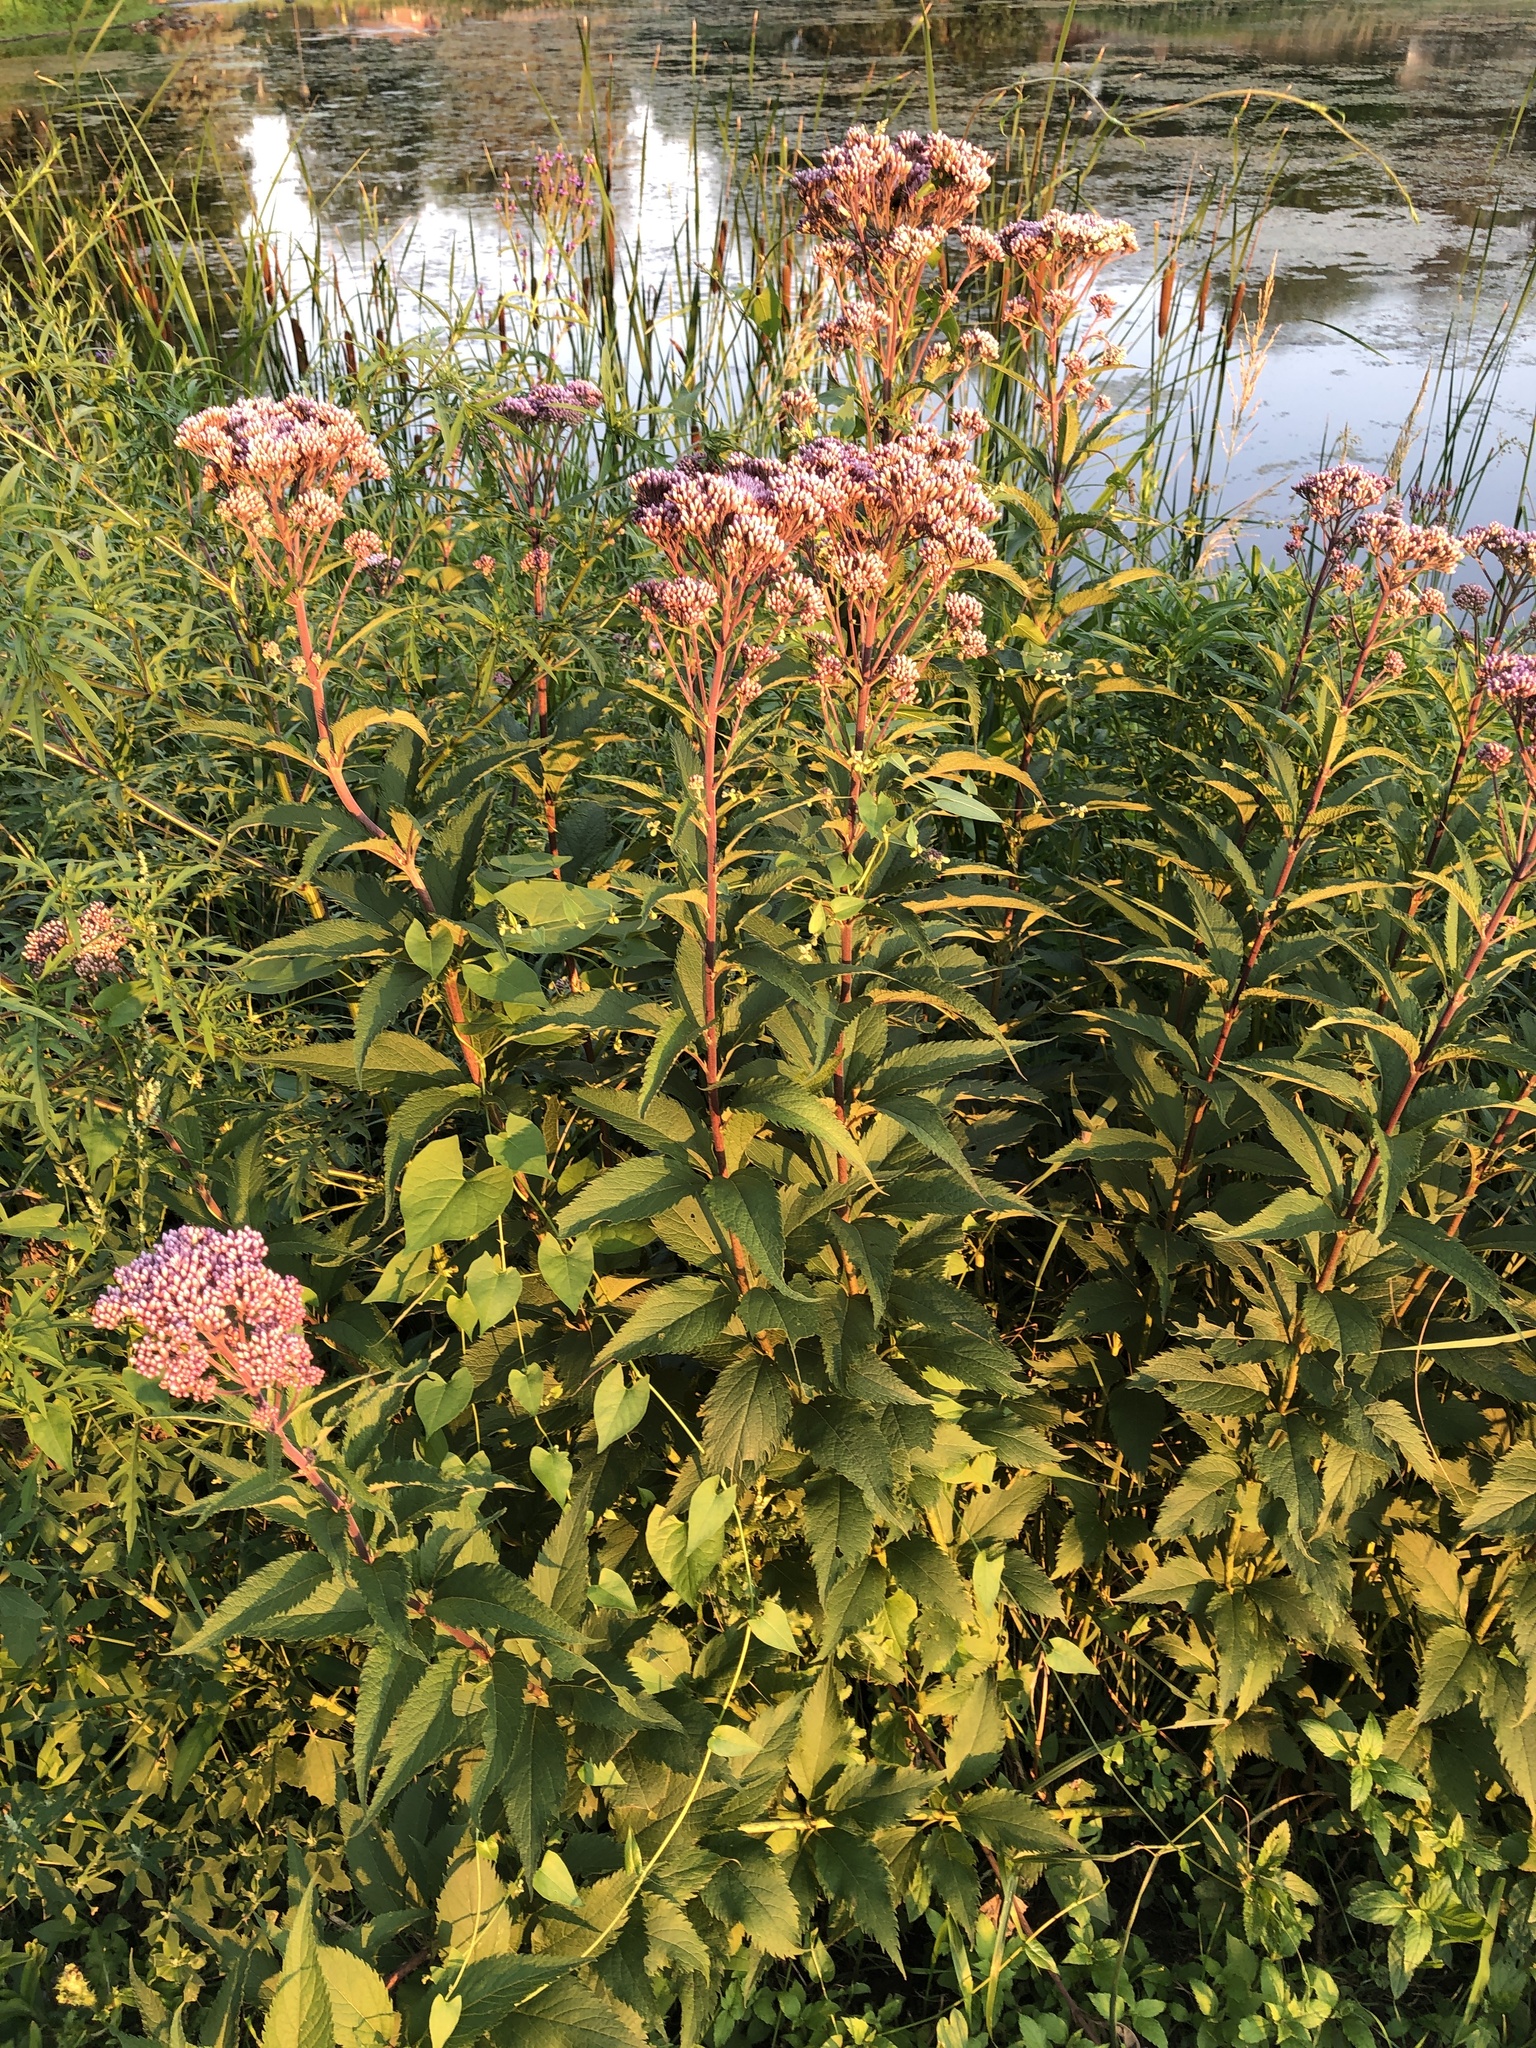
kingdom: Plantae
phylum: Tracheophyta
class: Magnoliopsida
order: Asterales
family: Asteraceae
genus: Eutrochium
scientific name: Eutrochium maculatum
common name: Spotted joe pye weed
